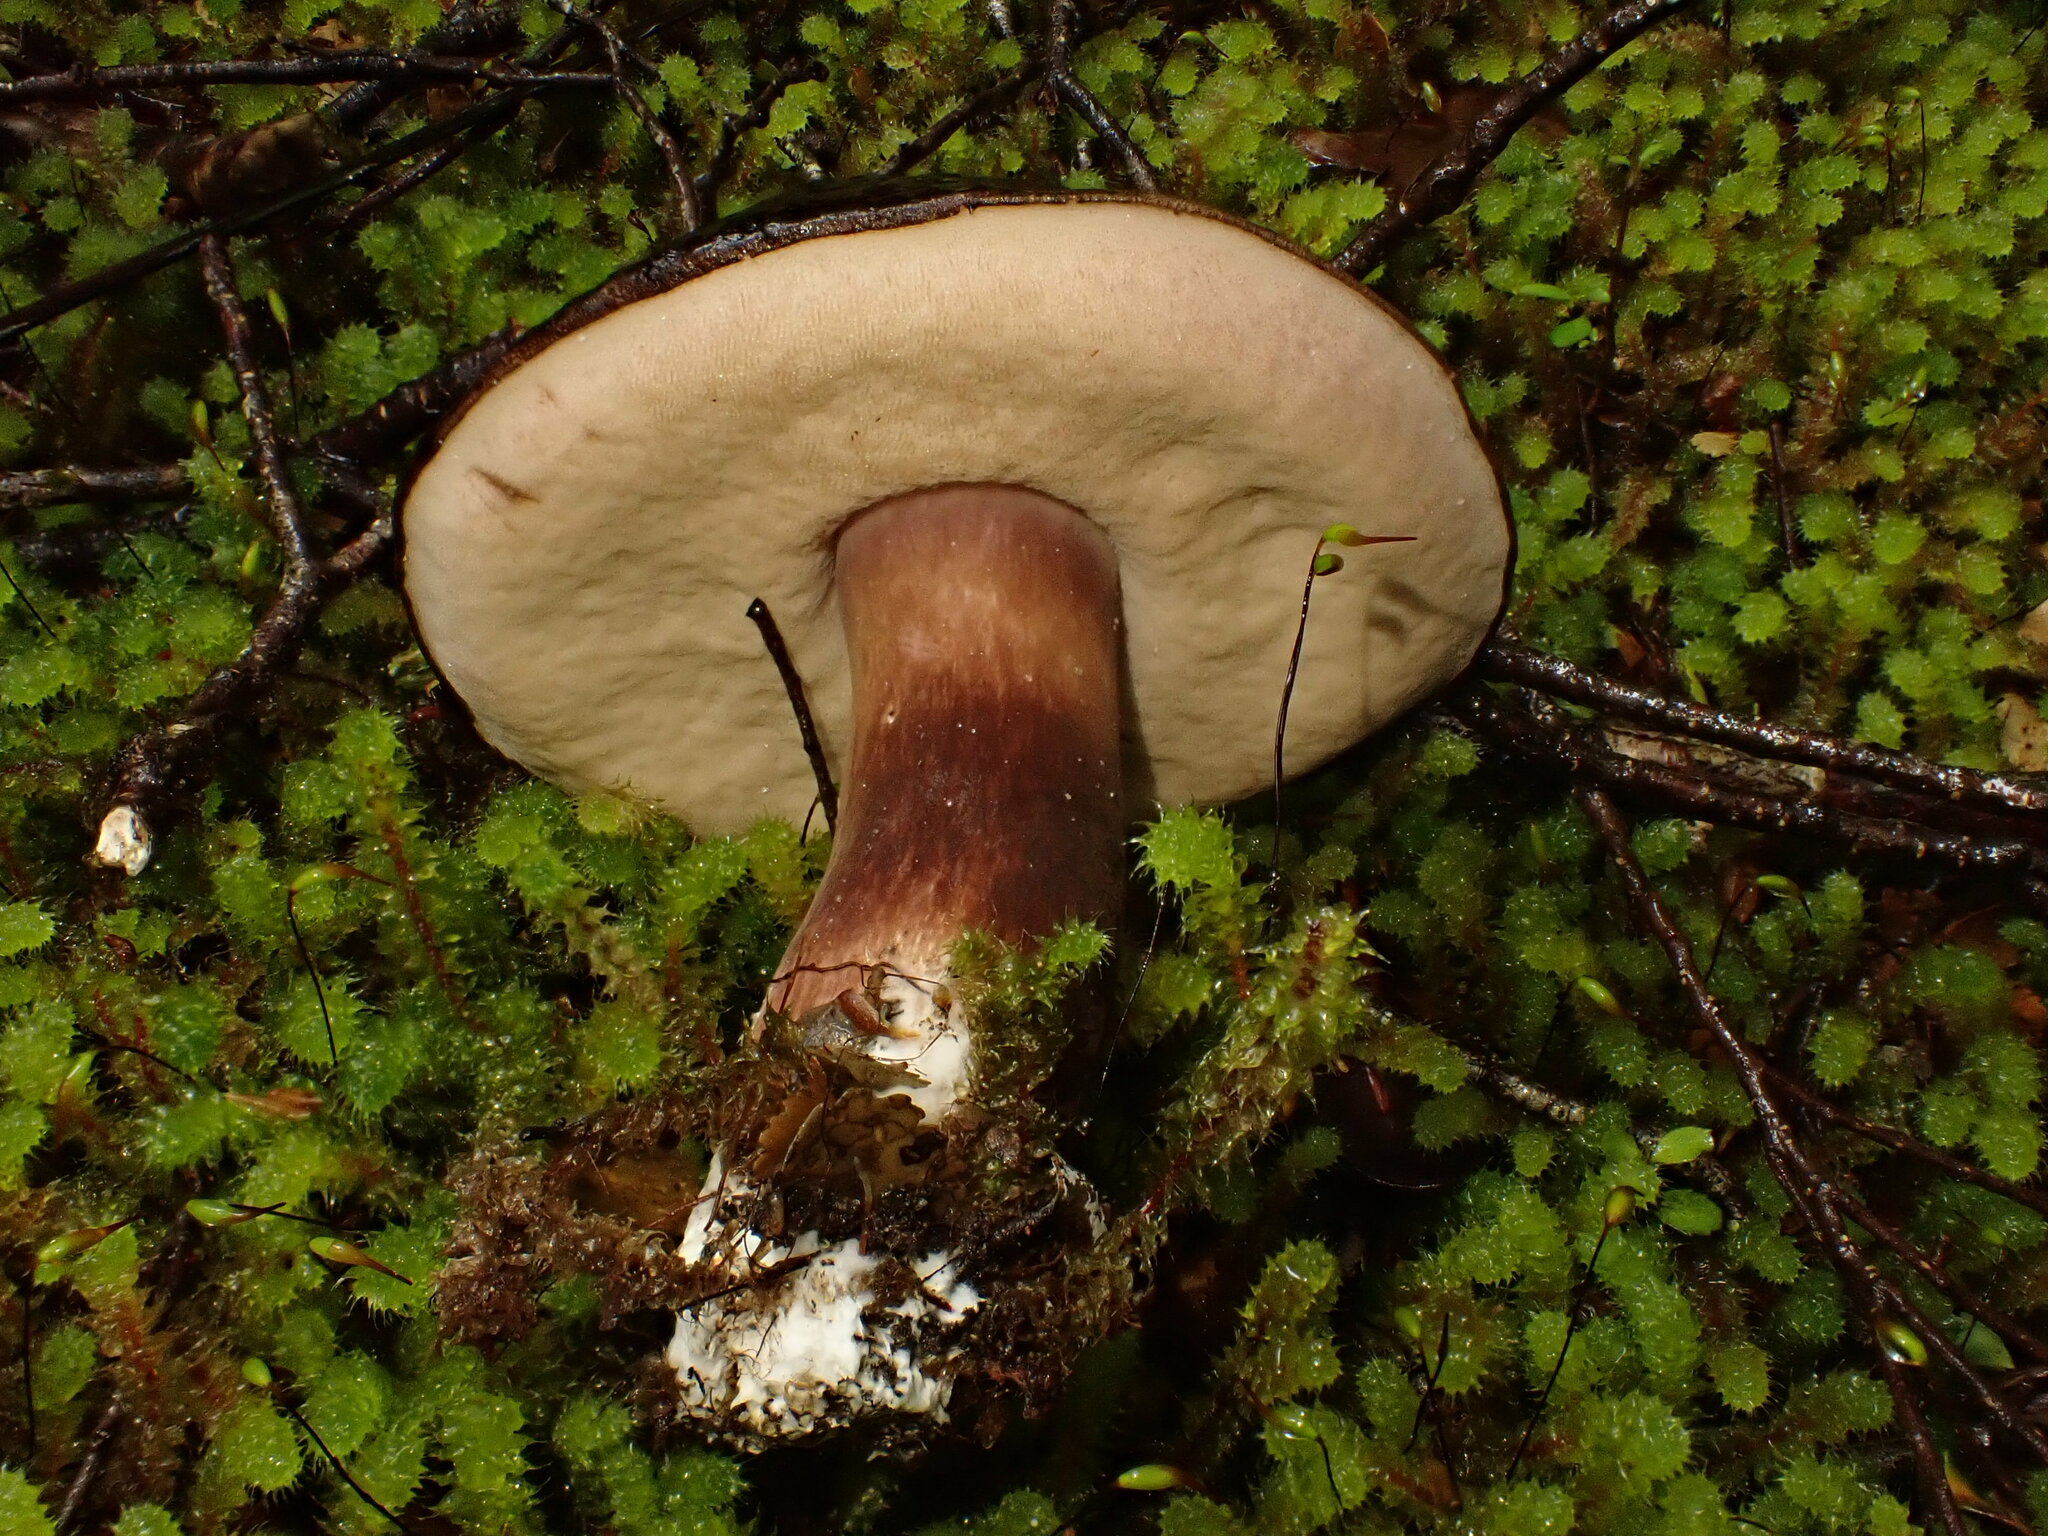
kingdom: Fungi
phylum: Basidiomycota
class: Agaricomycetes
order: Boletales
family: Boletaceae
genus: Porphyrellus
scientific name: Porphyrellus formosus
